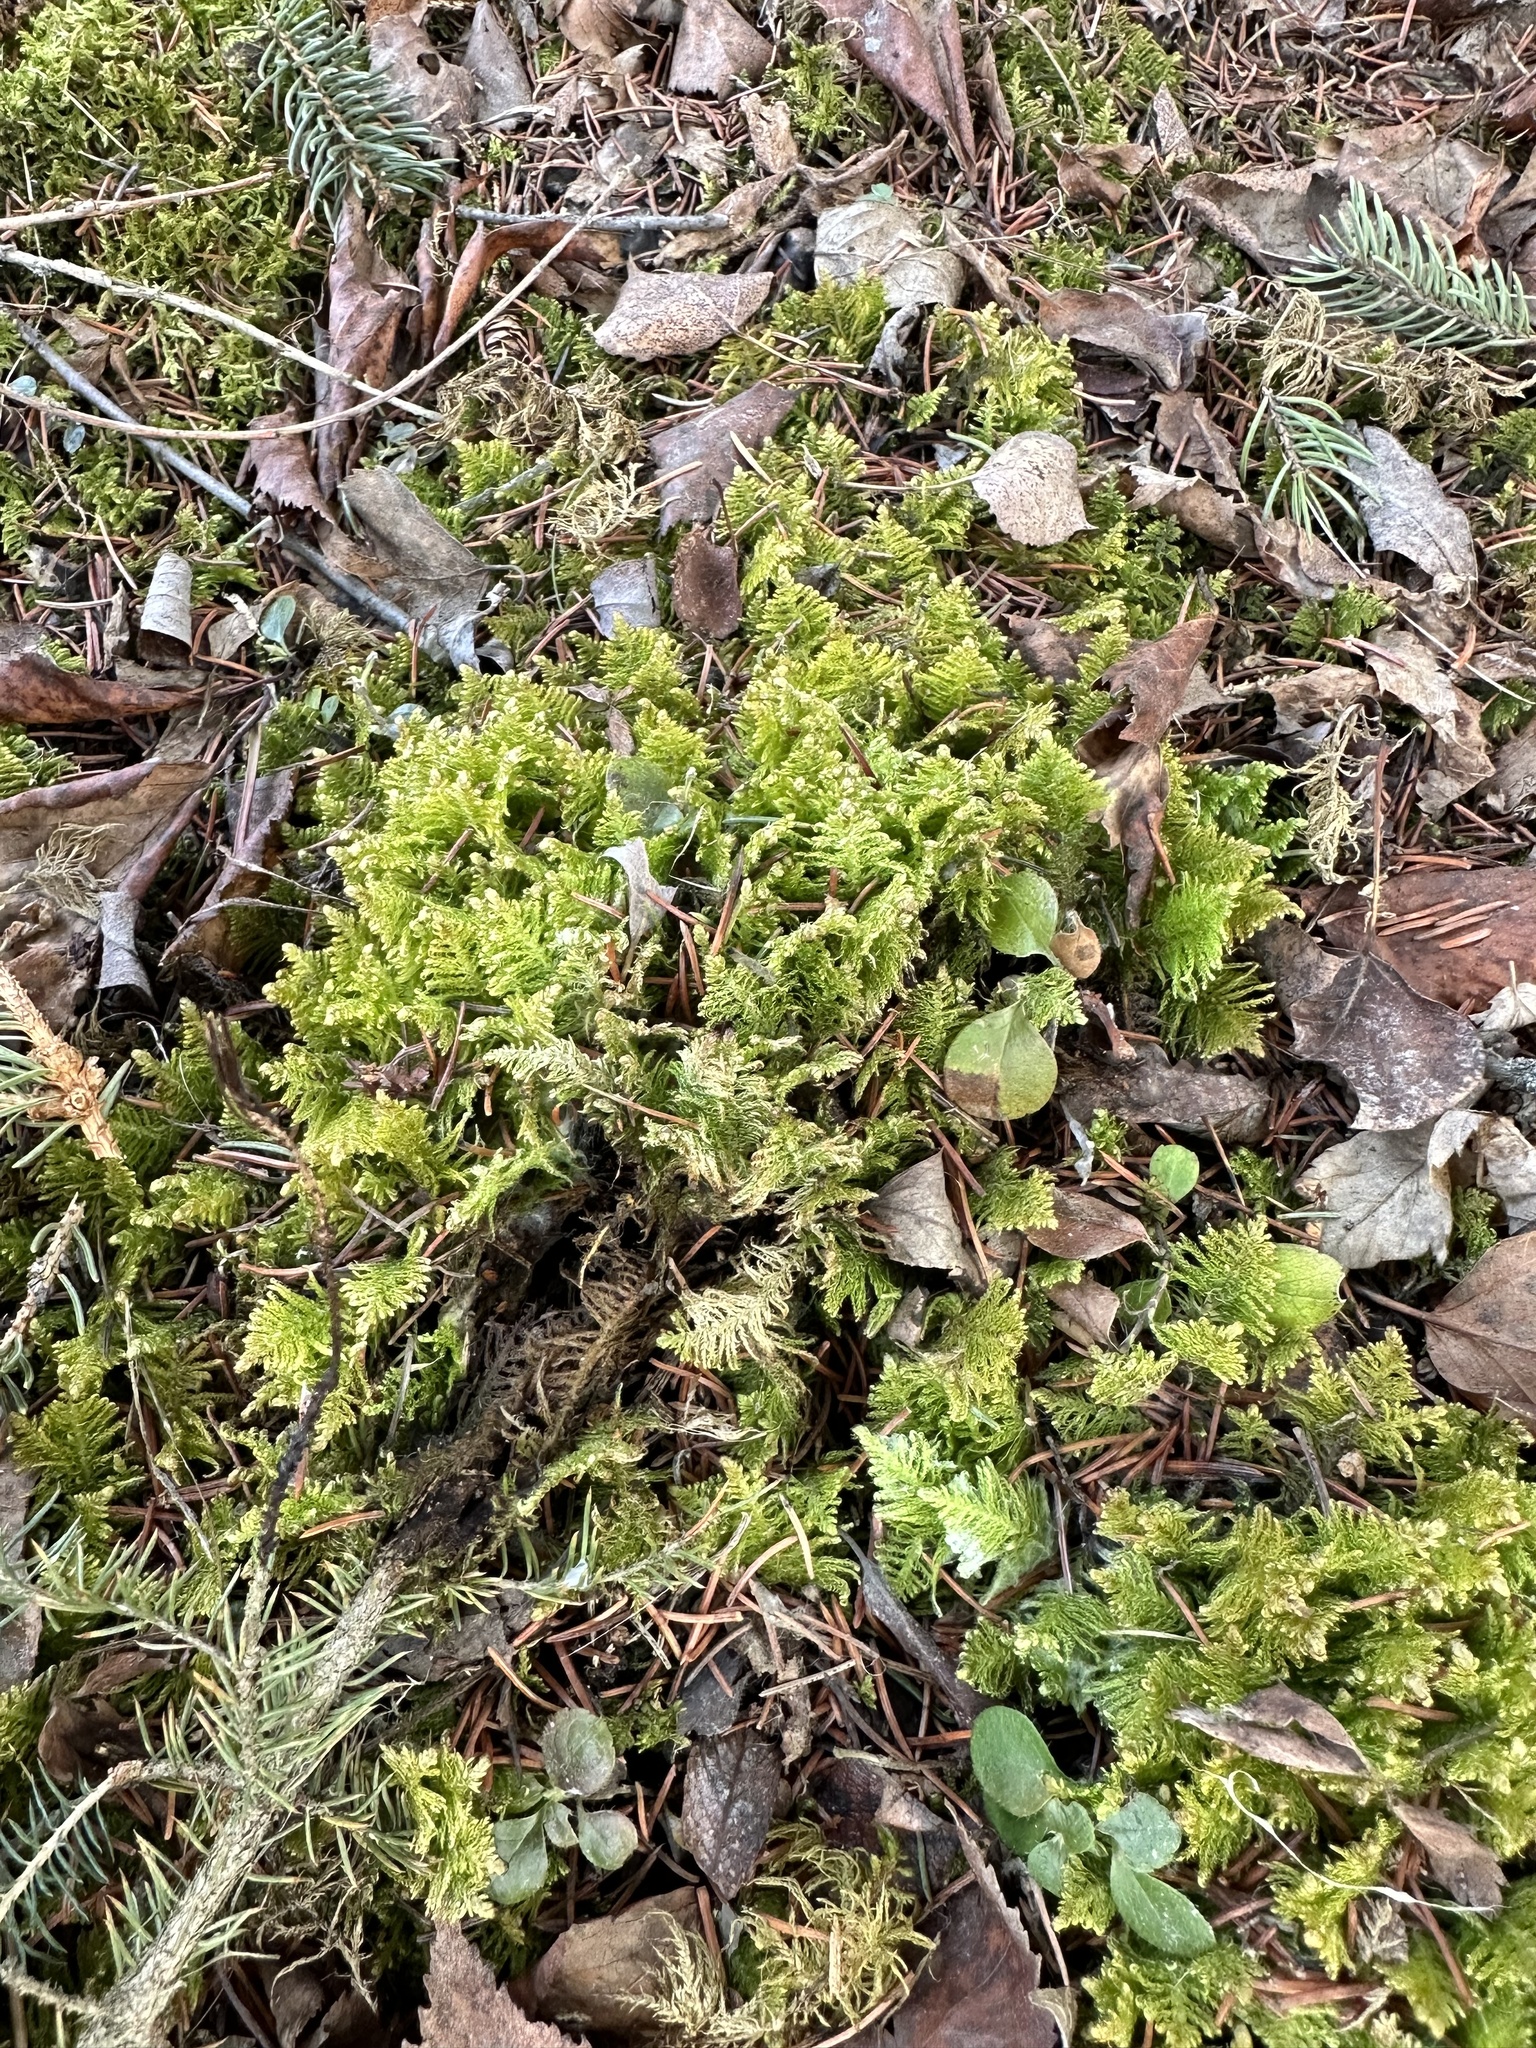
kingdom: Plantae
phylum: Bryophyta
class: Bryopsida
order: Hypnales
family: Pylaisiaceae
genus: Ptilium
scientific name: Ptilium crista-castrensis
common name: Knight's plume moss
